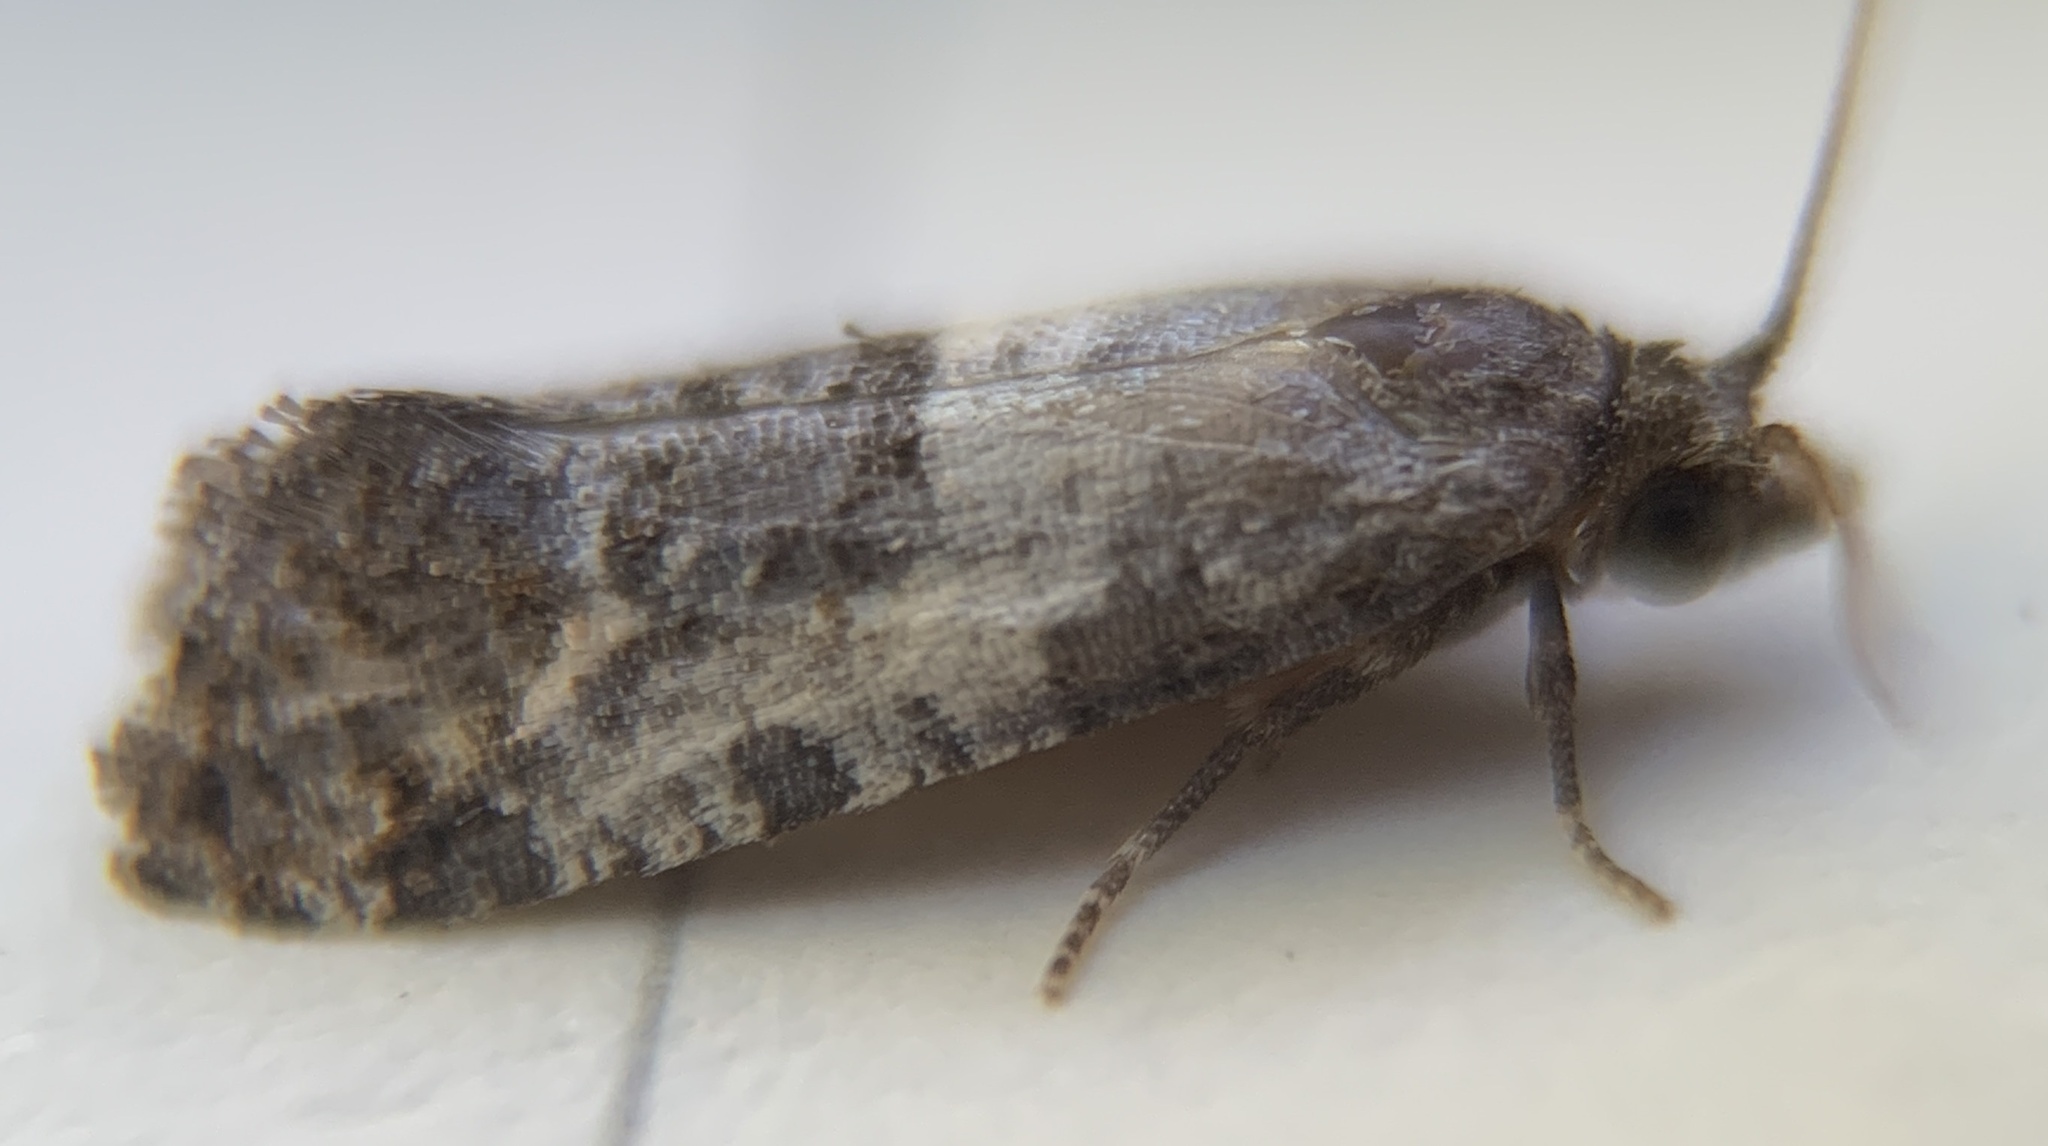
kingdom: Animalia
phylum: Arthropoda
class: Insecta
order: Lepidoptera
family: Tortricidae
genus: Rudenia
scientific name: Rudenia leguminana
